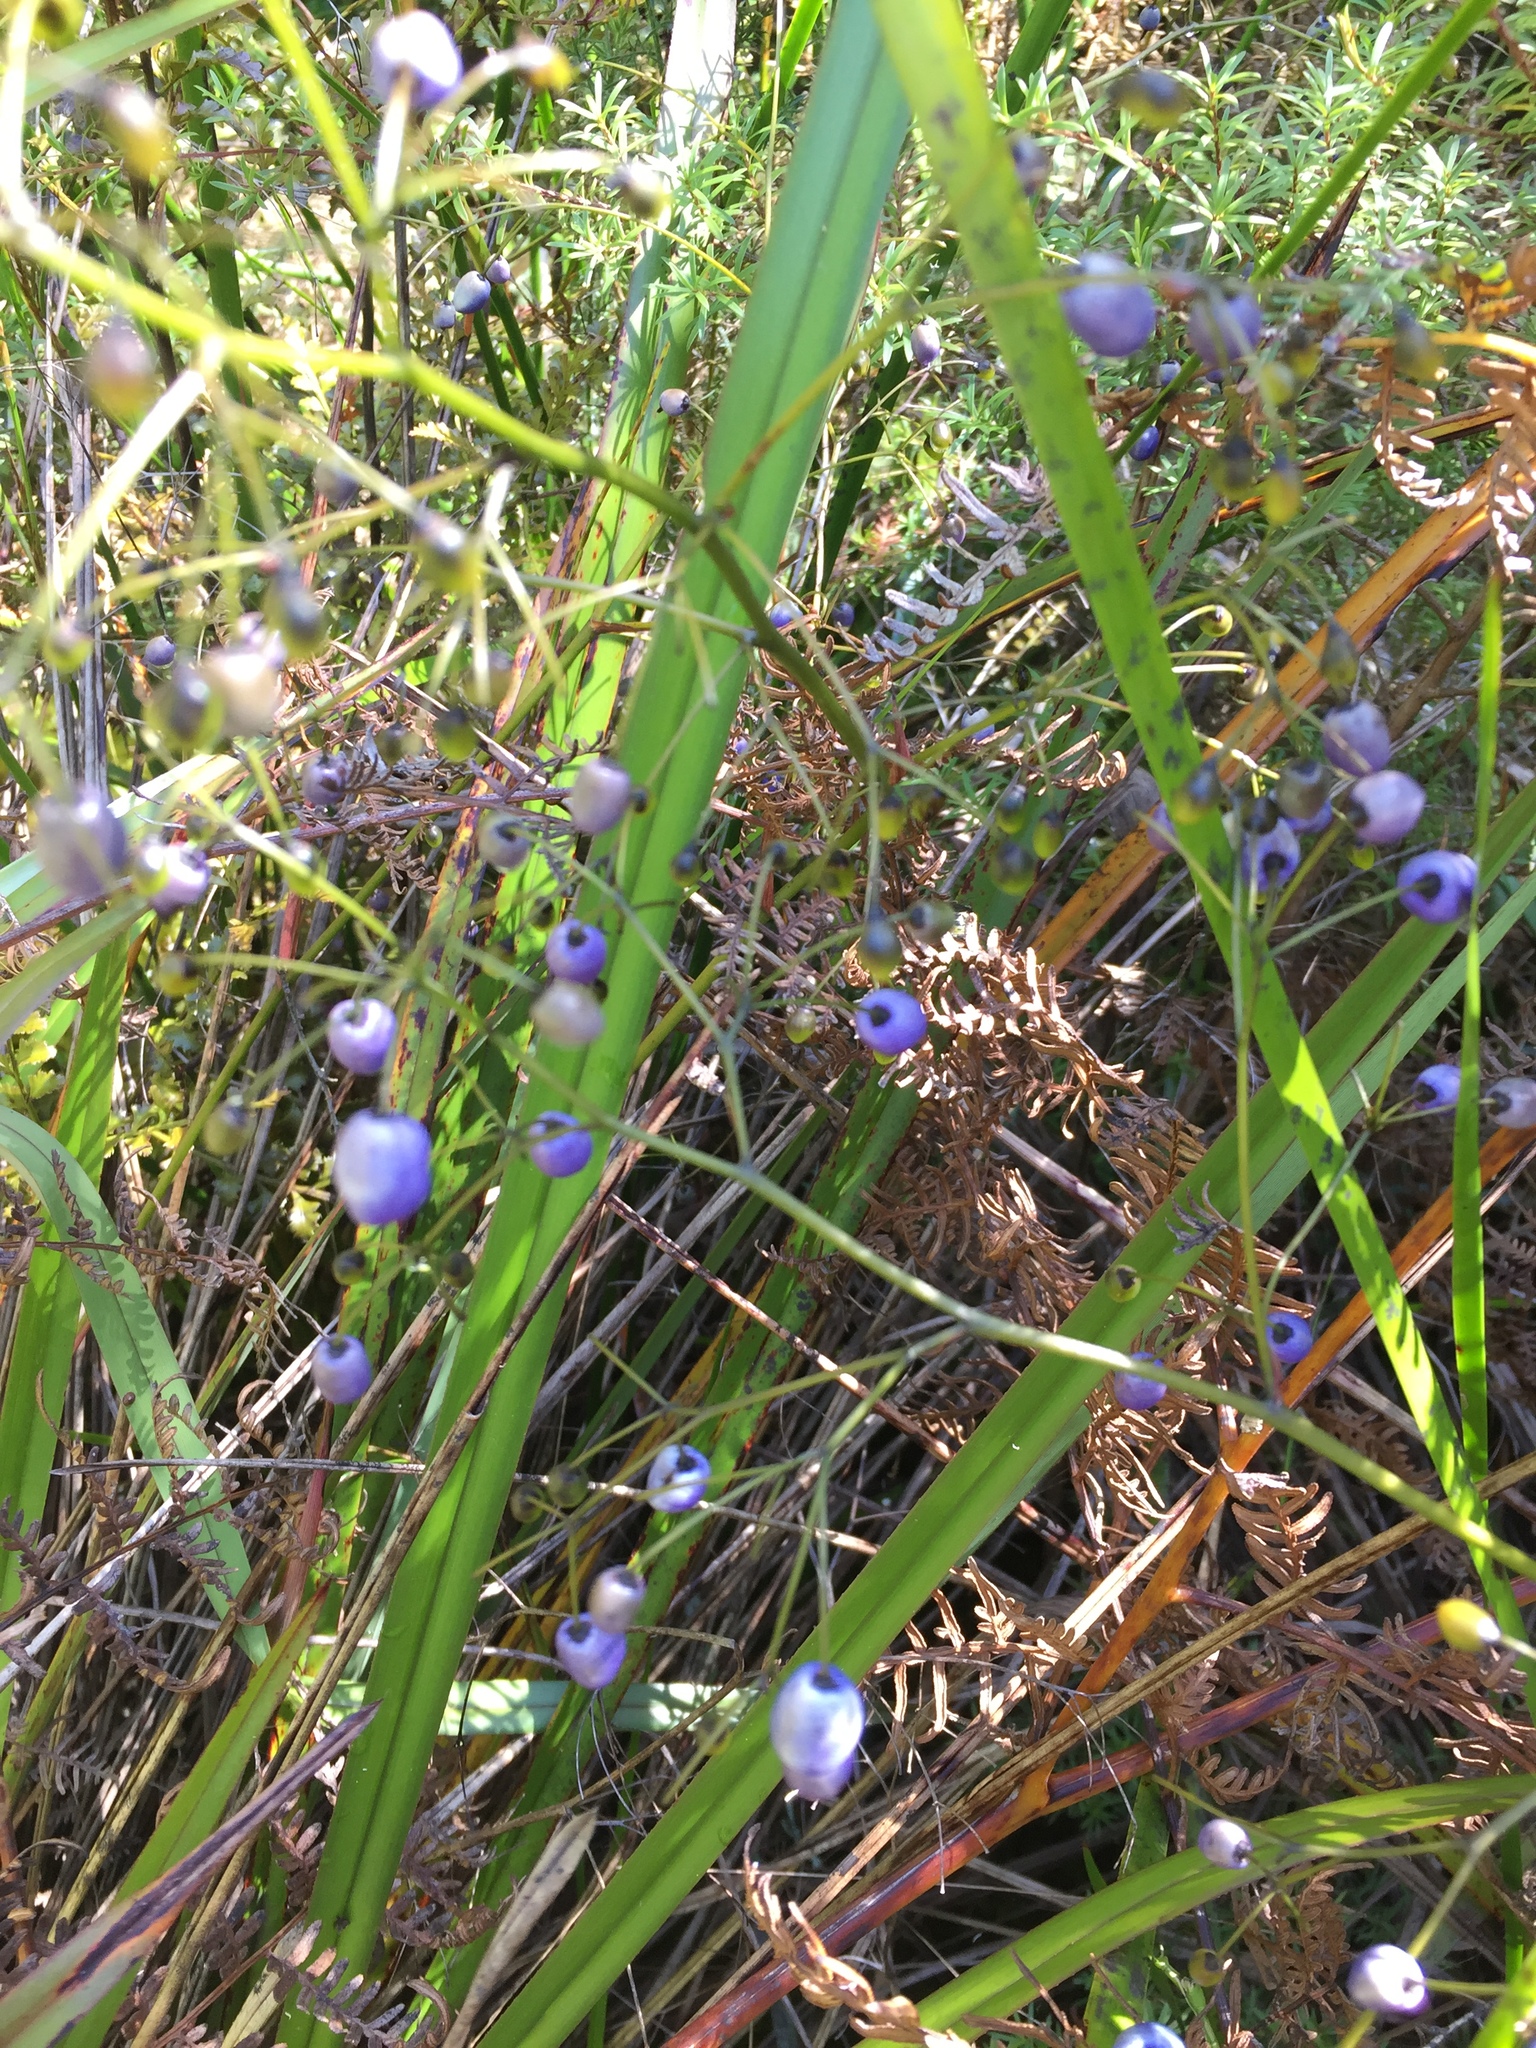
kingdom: Plantae
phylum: Tracheophyta
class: Liliopsida
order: Asparagales
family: Asphodelaceae
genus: Dianella
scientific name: Dianella haematica
